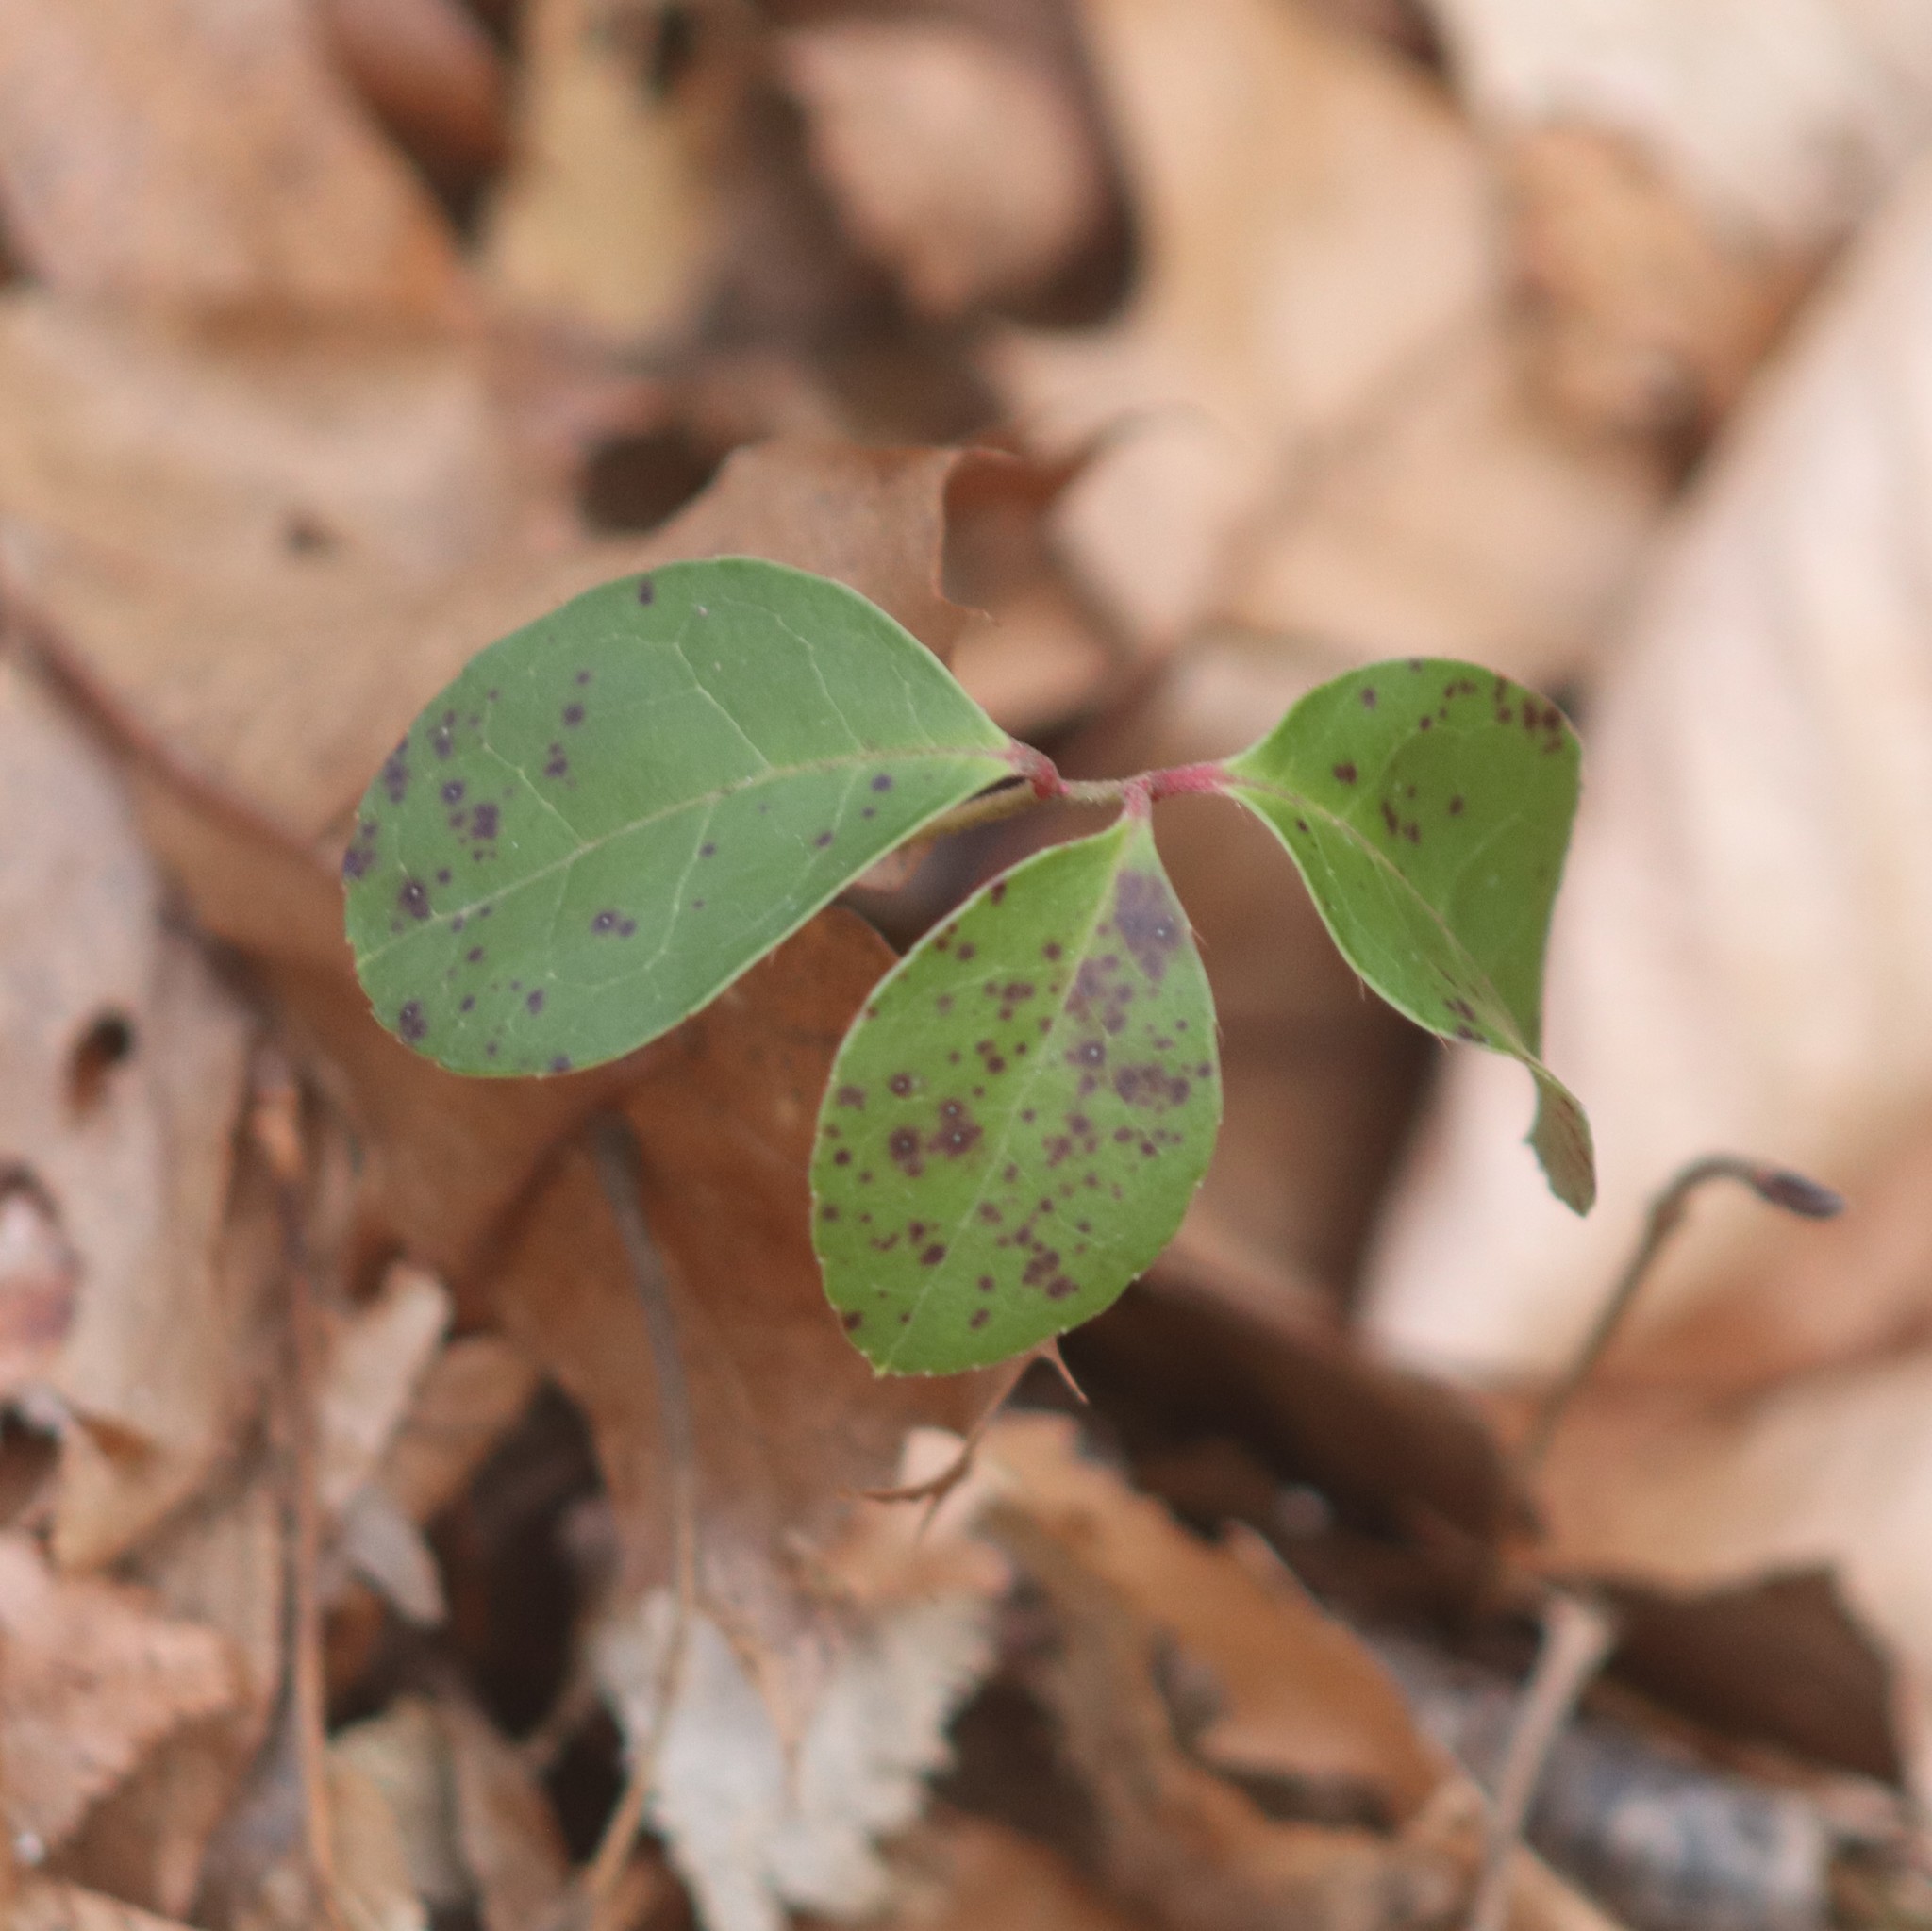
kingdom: Plantae
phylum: Tracheophyta
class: Magnoliopsida
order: Ericales
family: Ericaceae
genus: Gaultheria
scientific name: Gaultheria procumbens
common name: Checkerberry
